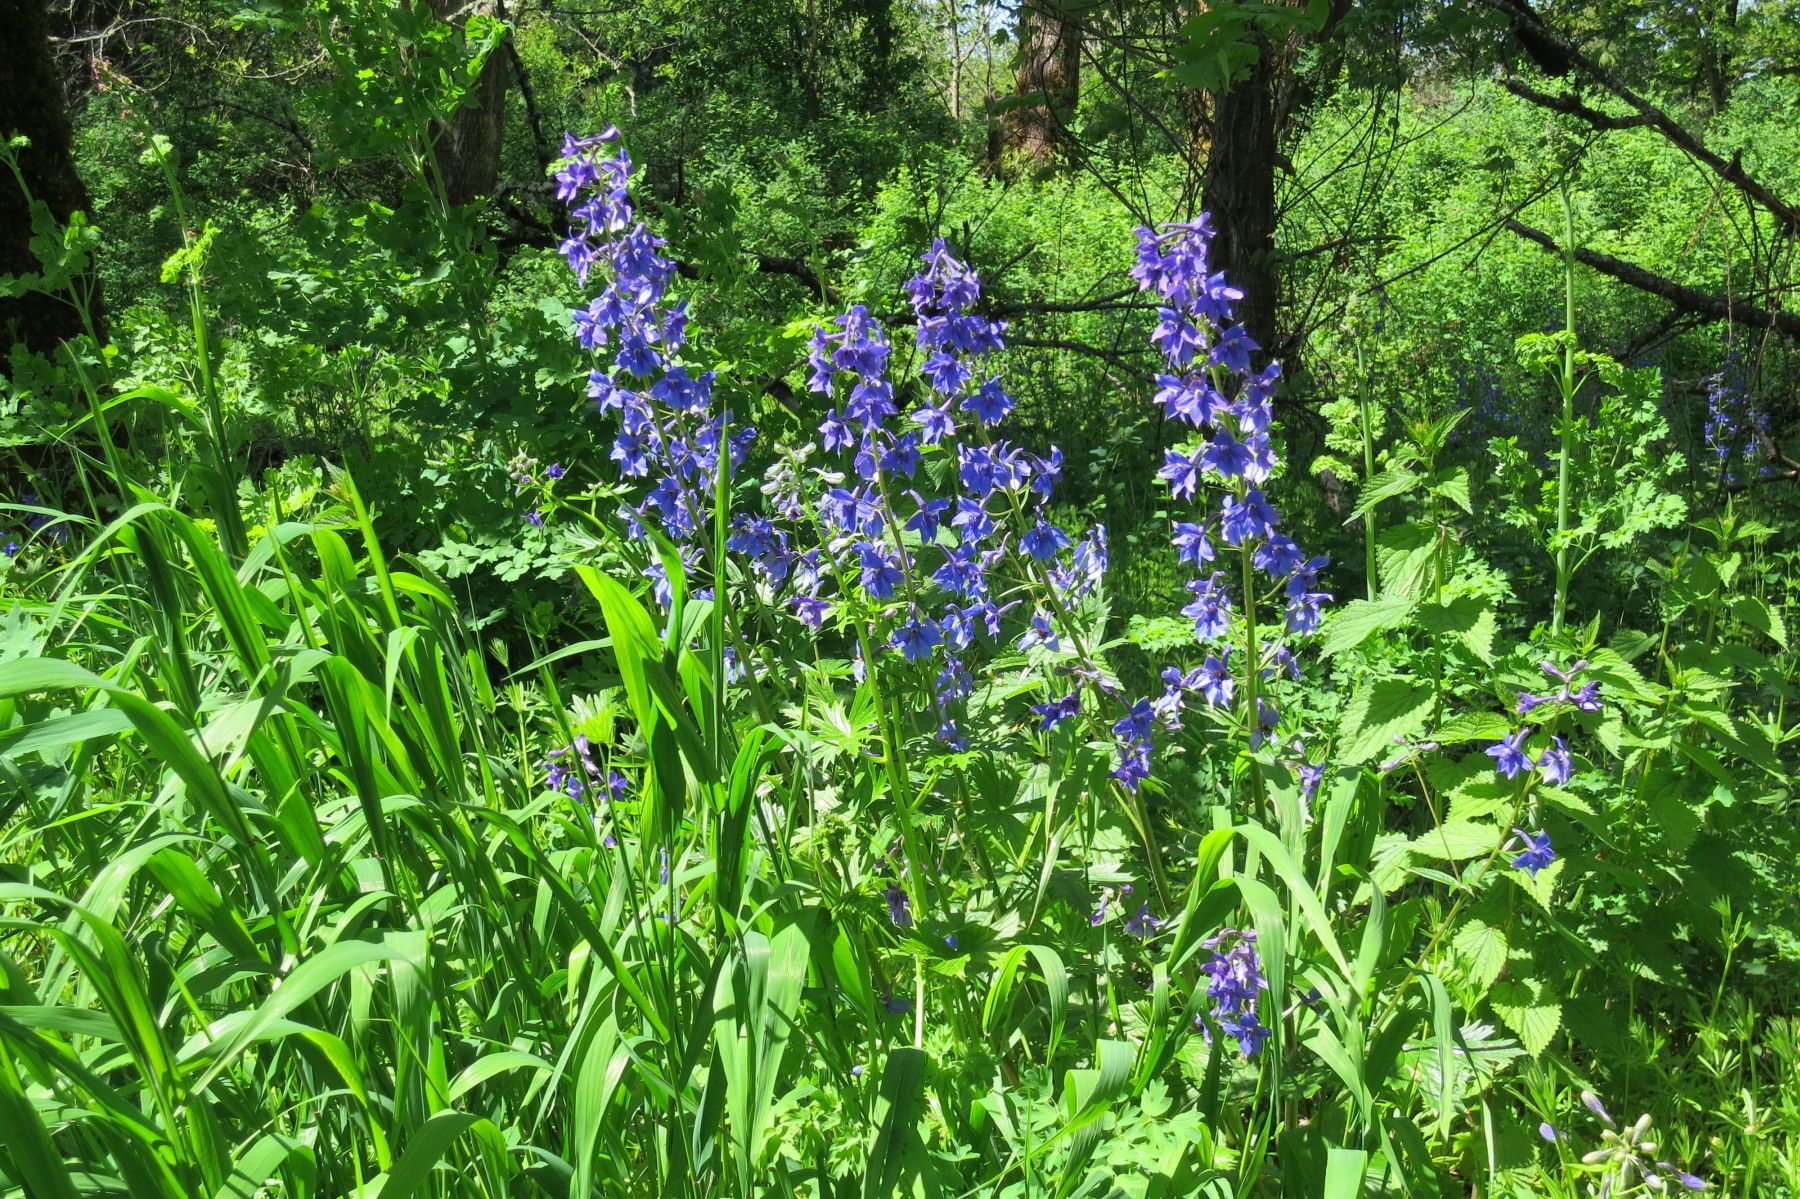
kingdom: Plantae
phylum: Tracheophyta
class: Magnoliopsida
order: Ranunculales
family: Ranunculaceae
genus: Delphinium
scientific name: Delphinium trolliifolium
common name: Cow-poison
